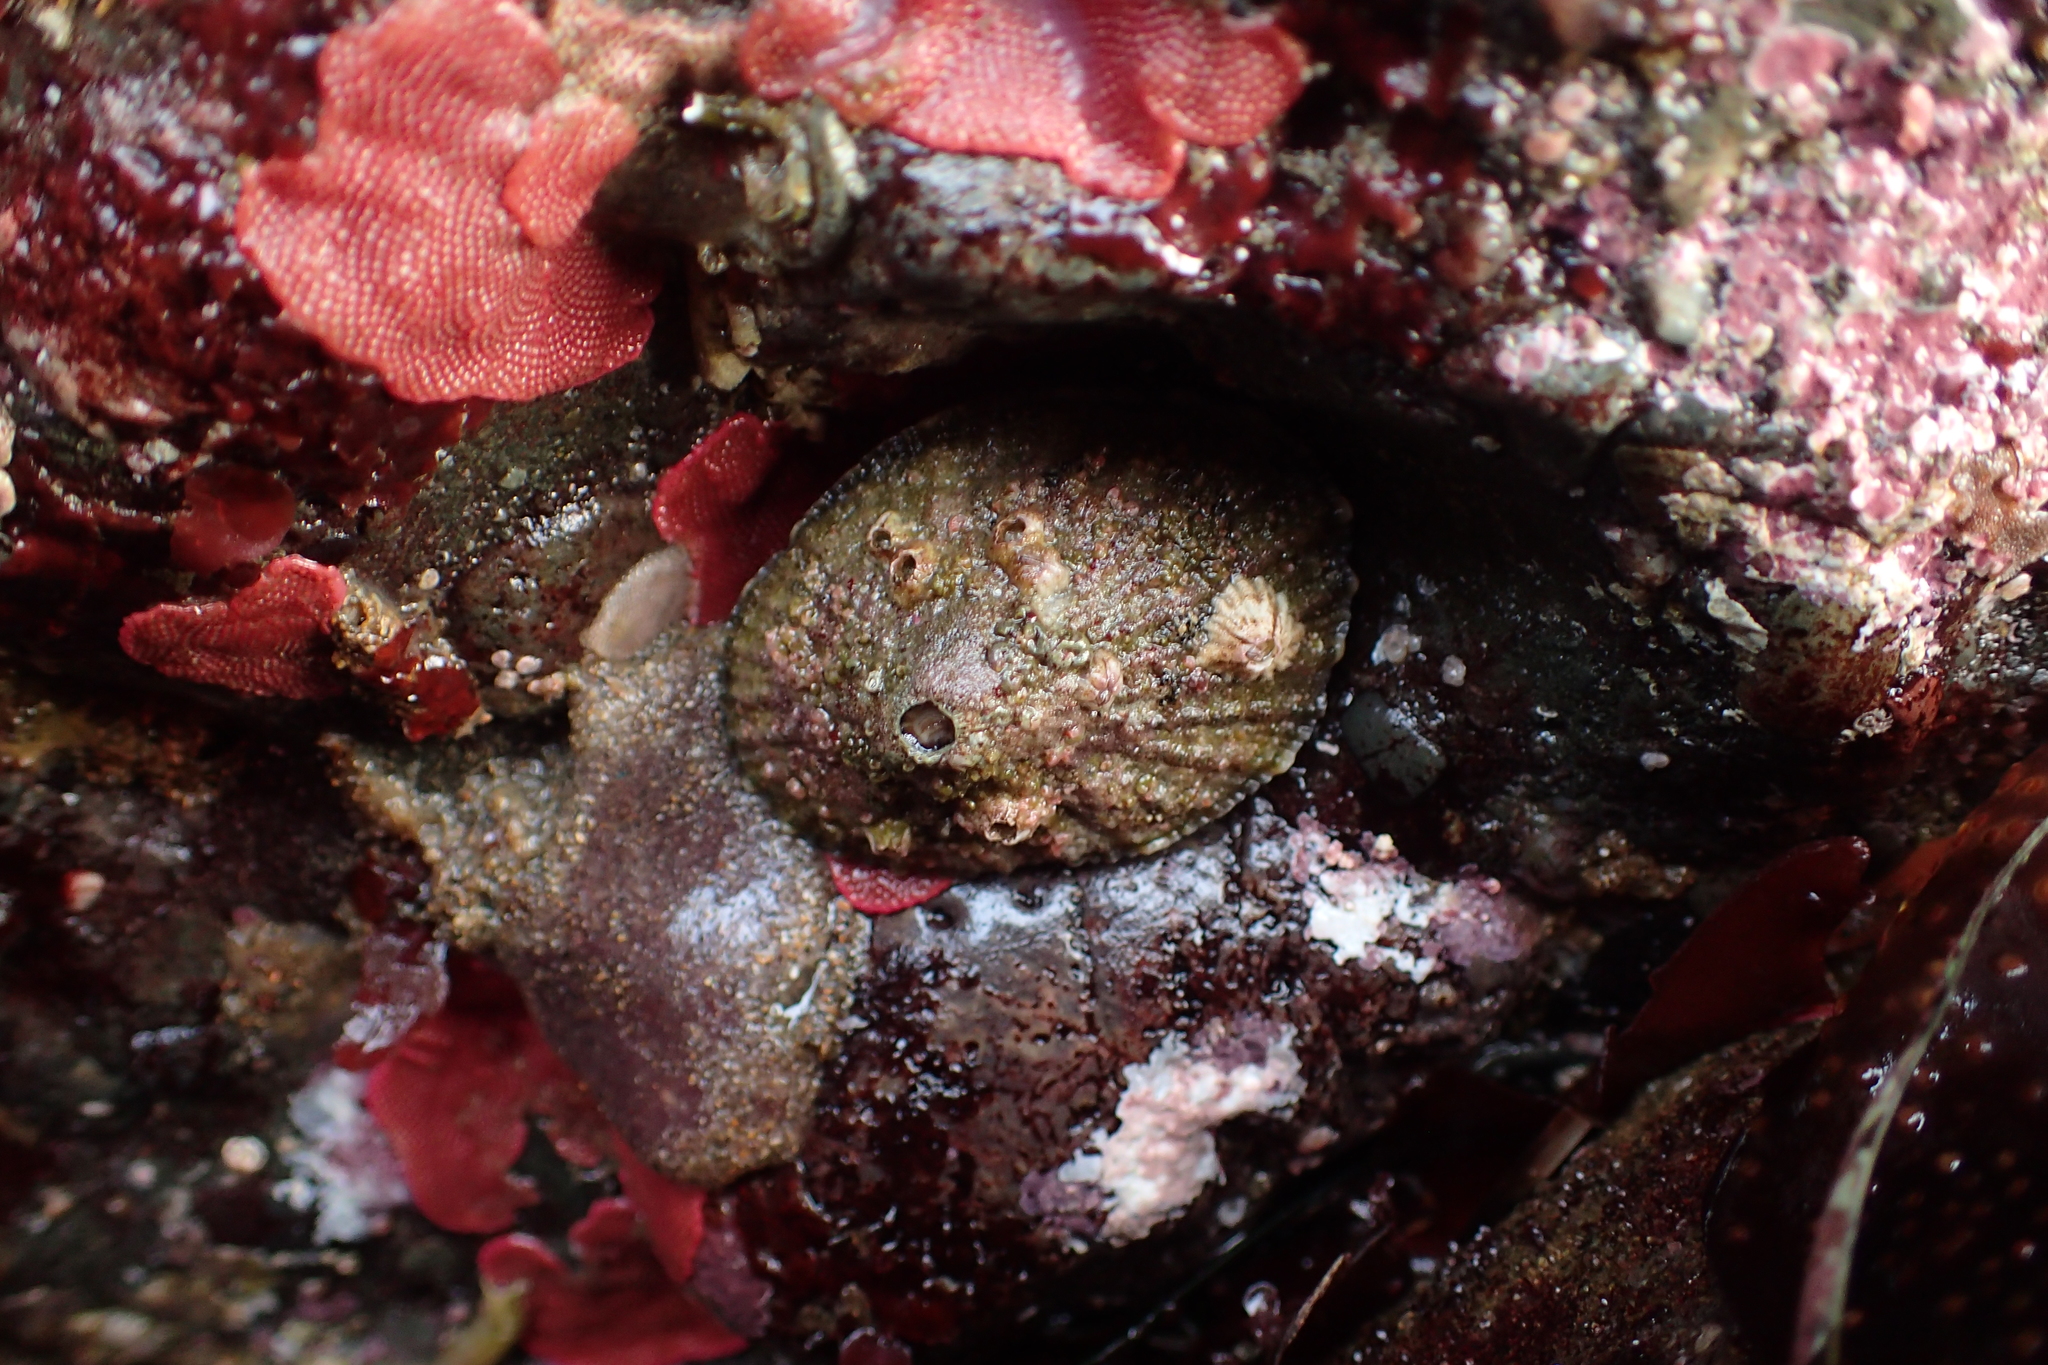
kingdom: Animalia
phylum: Mollusca
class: Gastropoda
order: Lepetellida
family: Fissurellidae
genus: Diodora
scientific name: Diodora aspera
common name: Rough keyhole limpet
